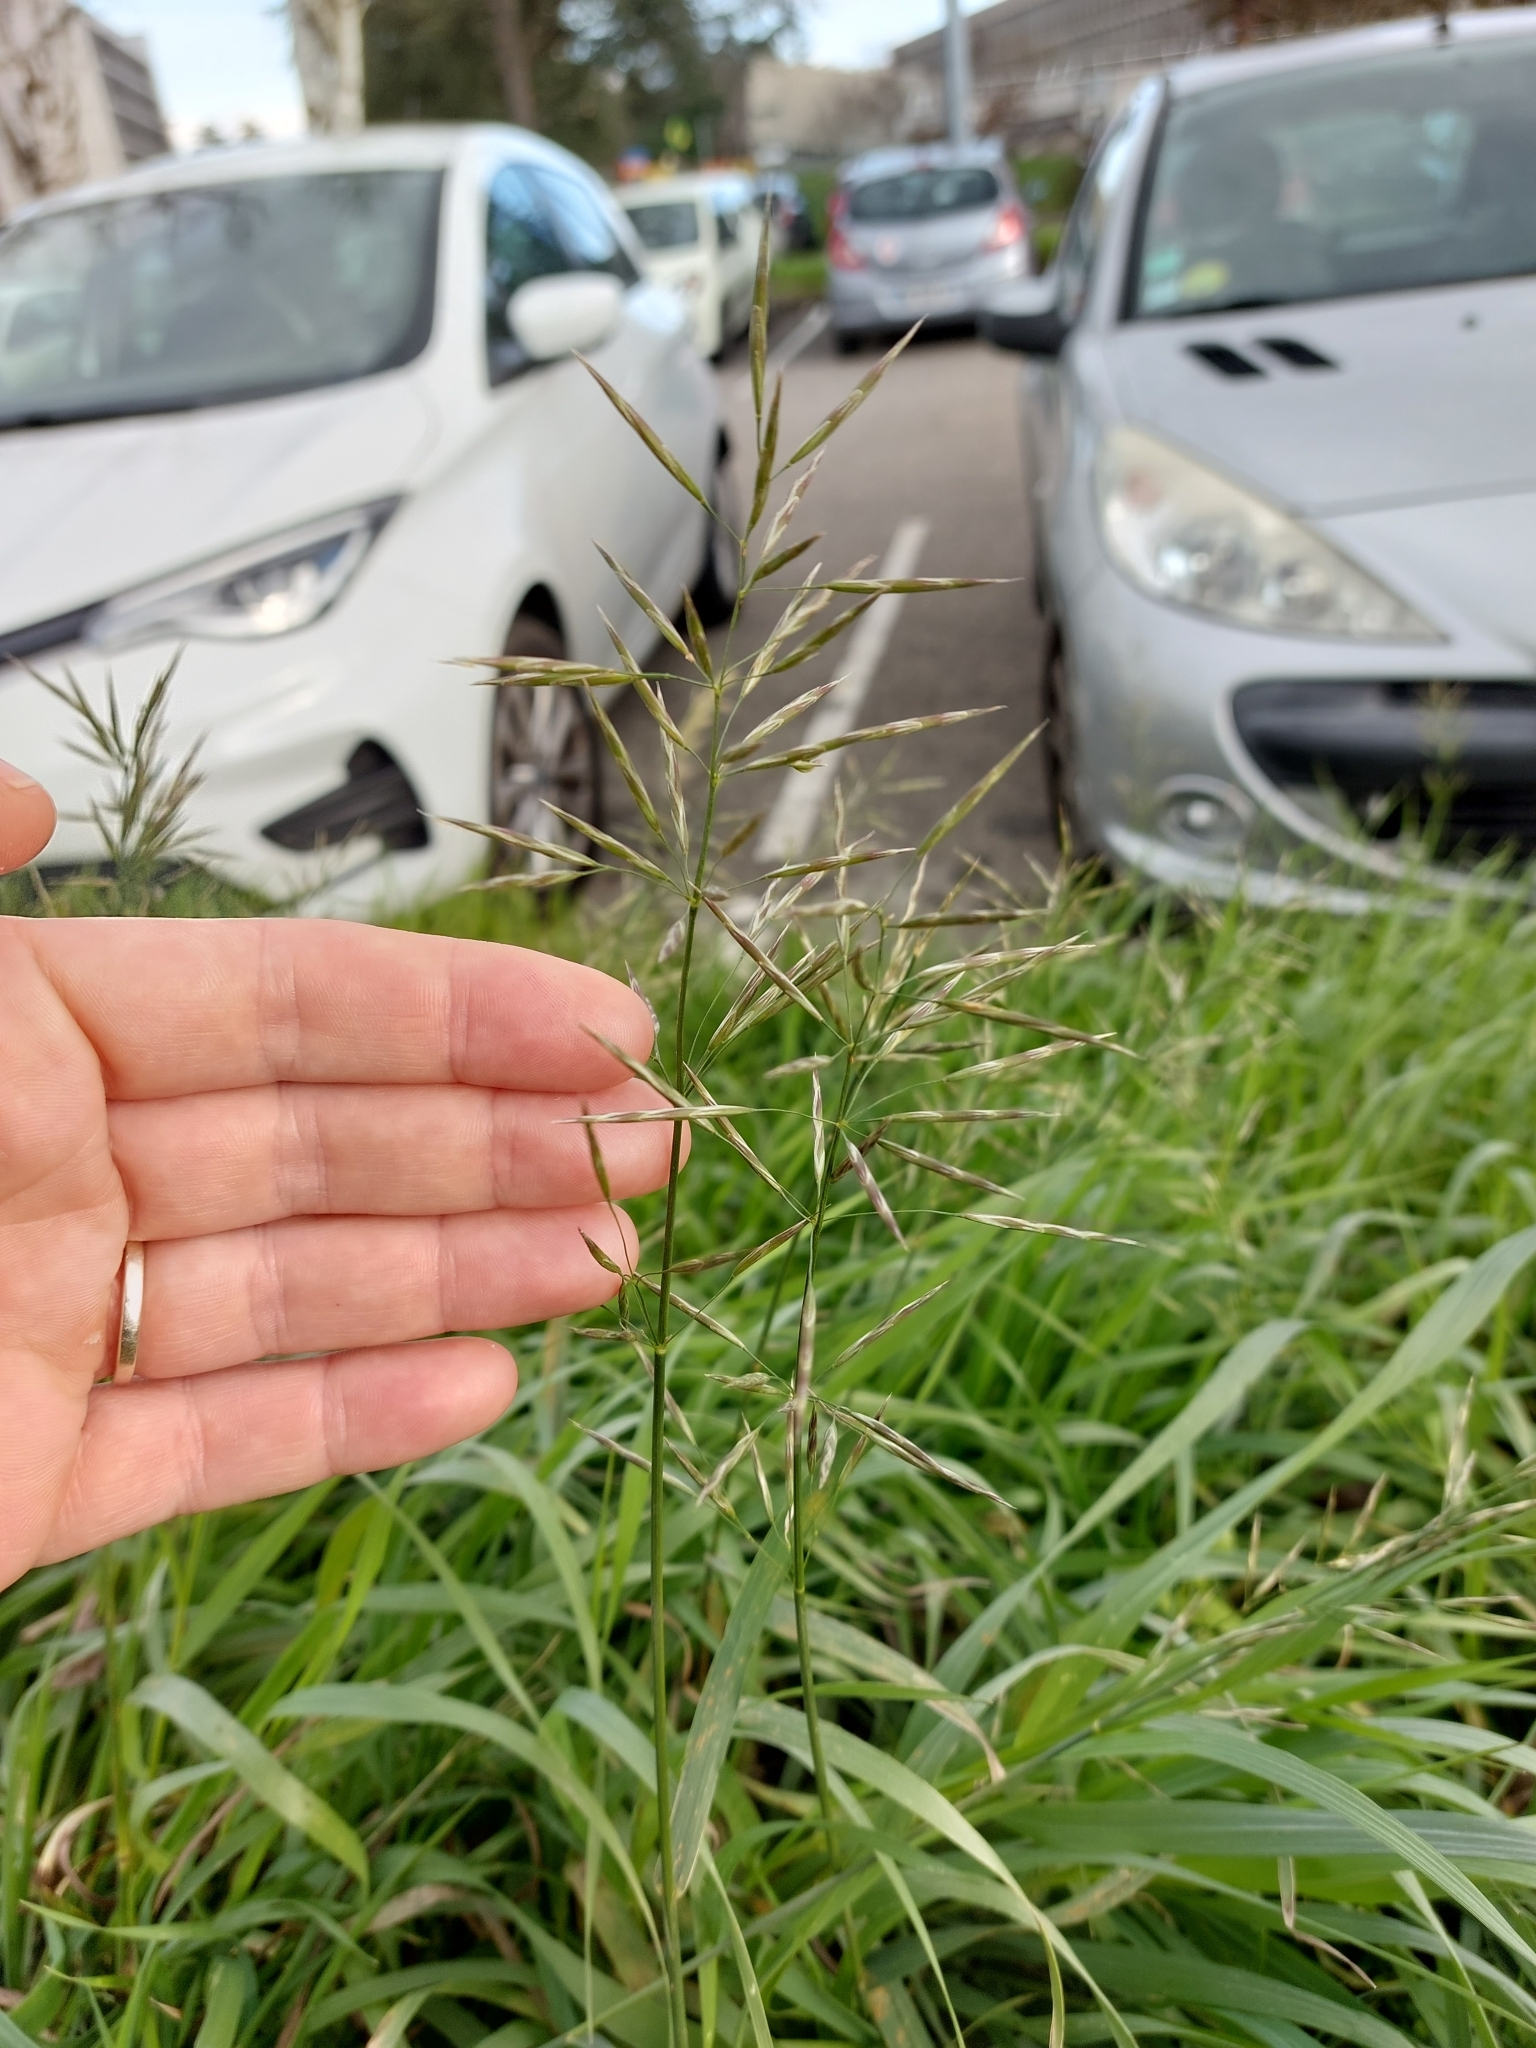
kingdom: Plantae
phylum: Tracheophyta
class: Liliopsida
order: Poales
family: Poaceae
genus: Bromus
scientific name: Bromus inermis
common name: Smooth brome
